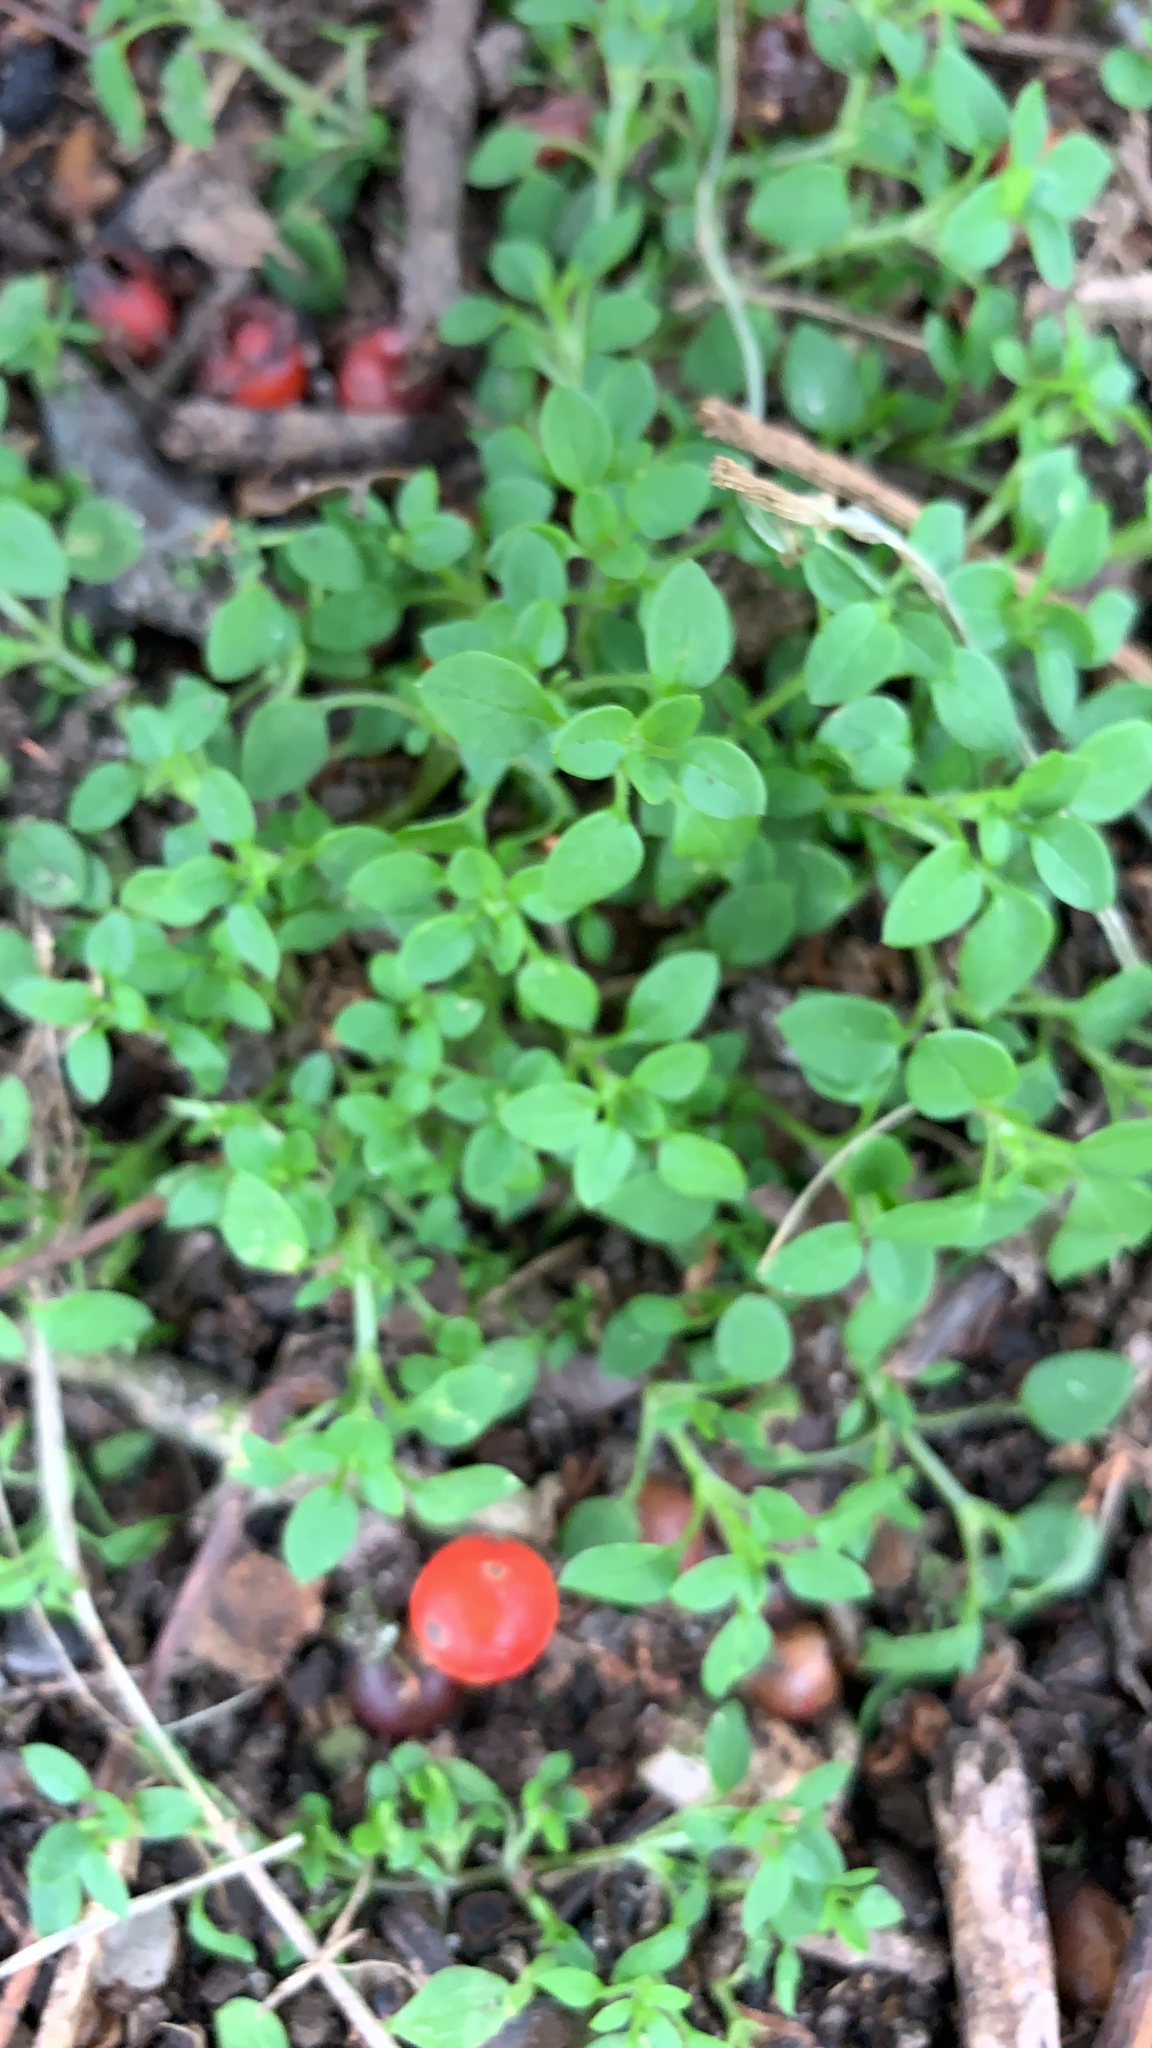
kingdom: Plantae
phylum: Tracheophyta
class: Magnoliopsida
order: Caryophyllales
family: Caryophyllaceae
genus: Stellaria
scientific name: Stellaria media
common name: Common chickweed
